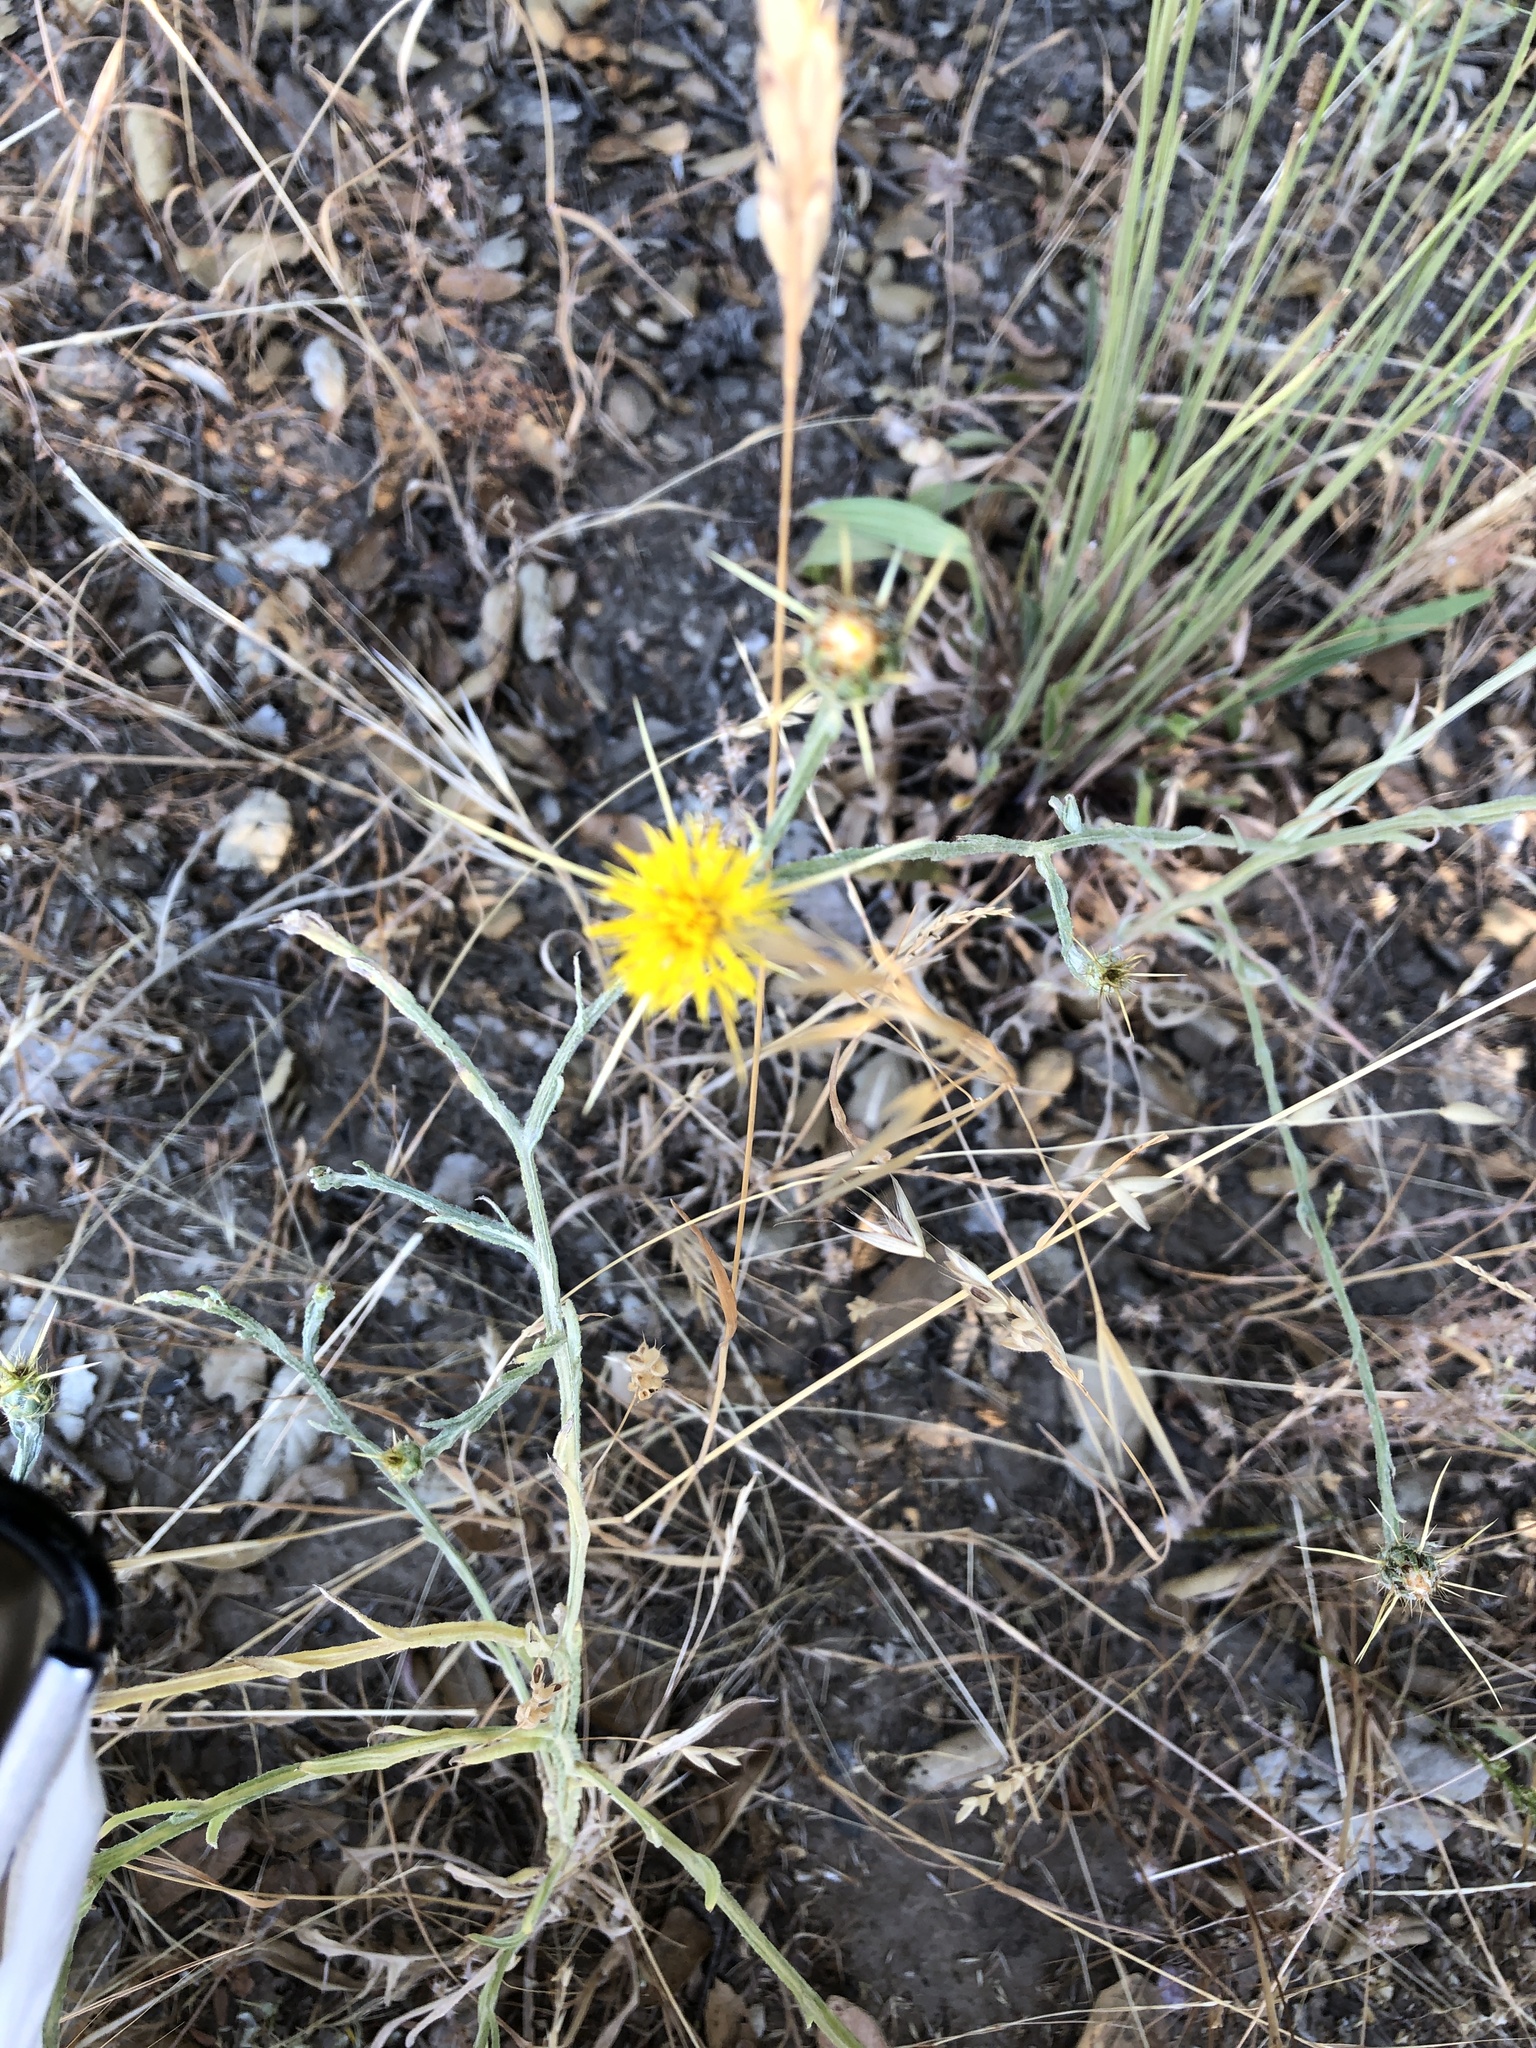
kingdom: Plantae
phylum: Tracheophyta
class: Magnoliopsida
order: Asterales
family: Asteraceae
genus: Centaurea
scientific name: Centaurea solstitialis
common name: Yellow star-thistle
